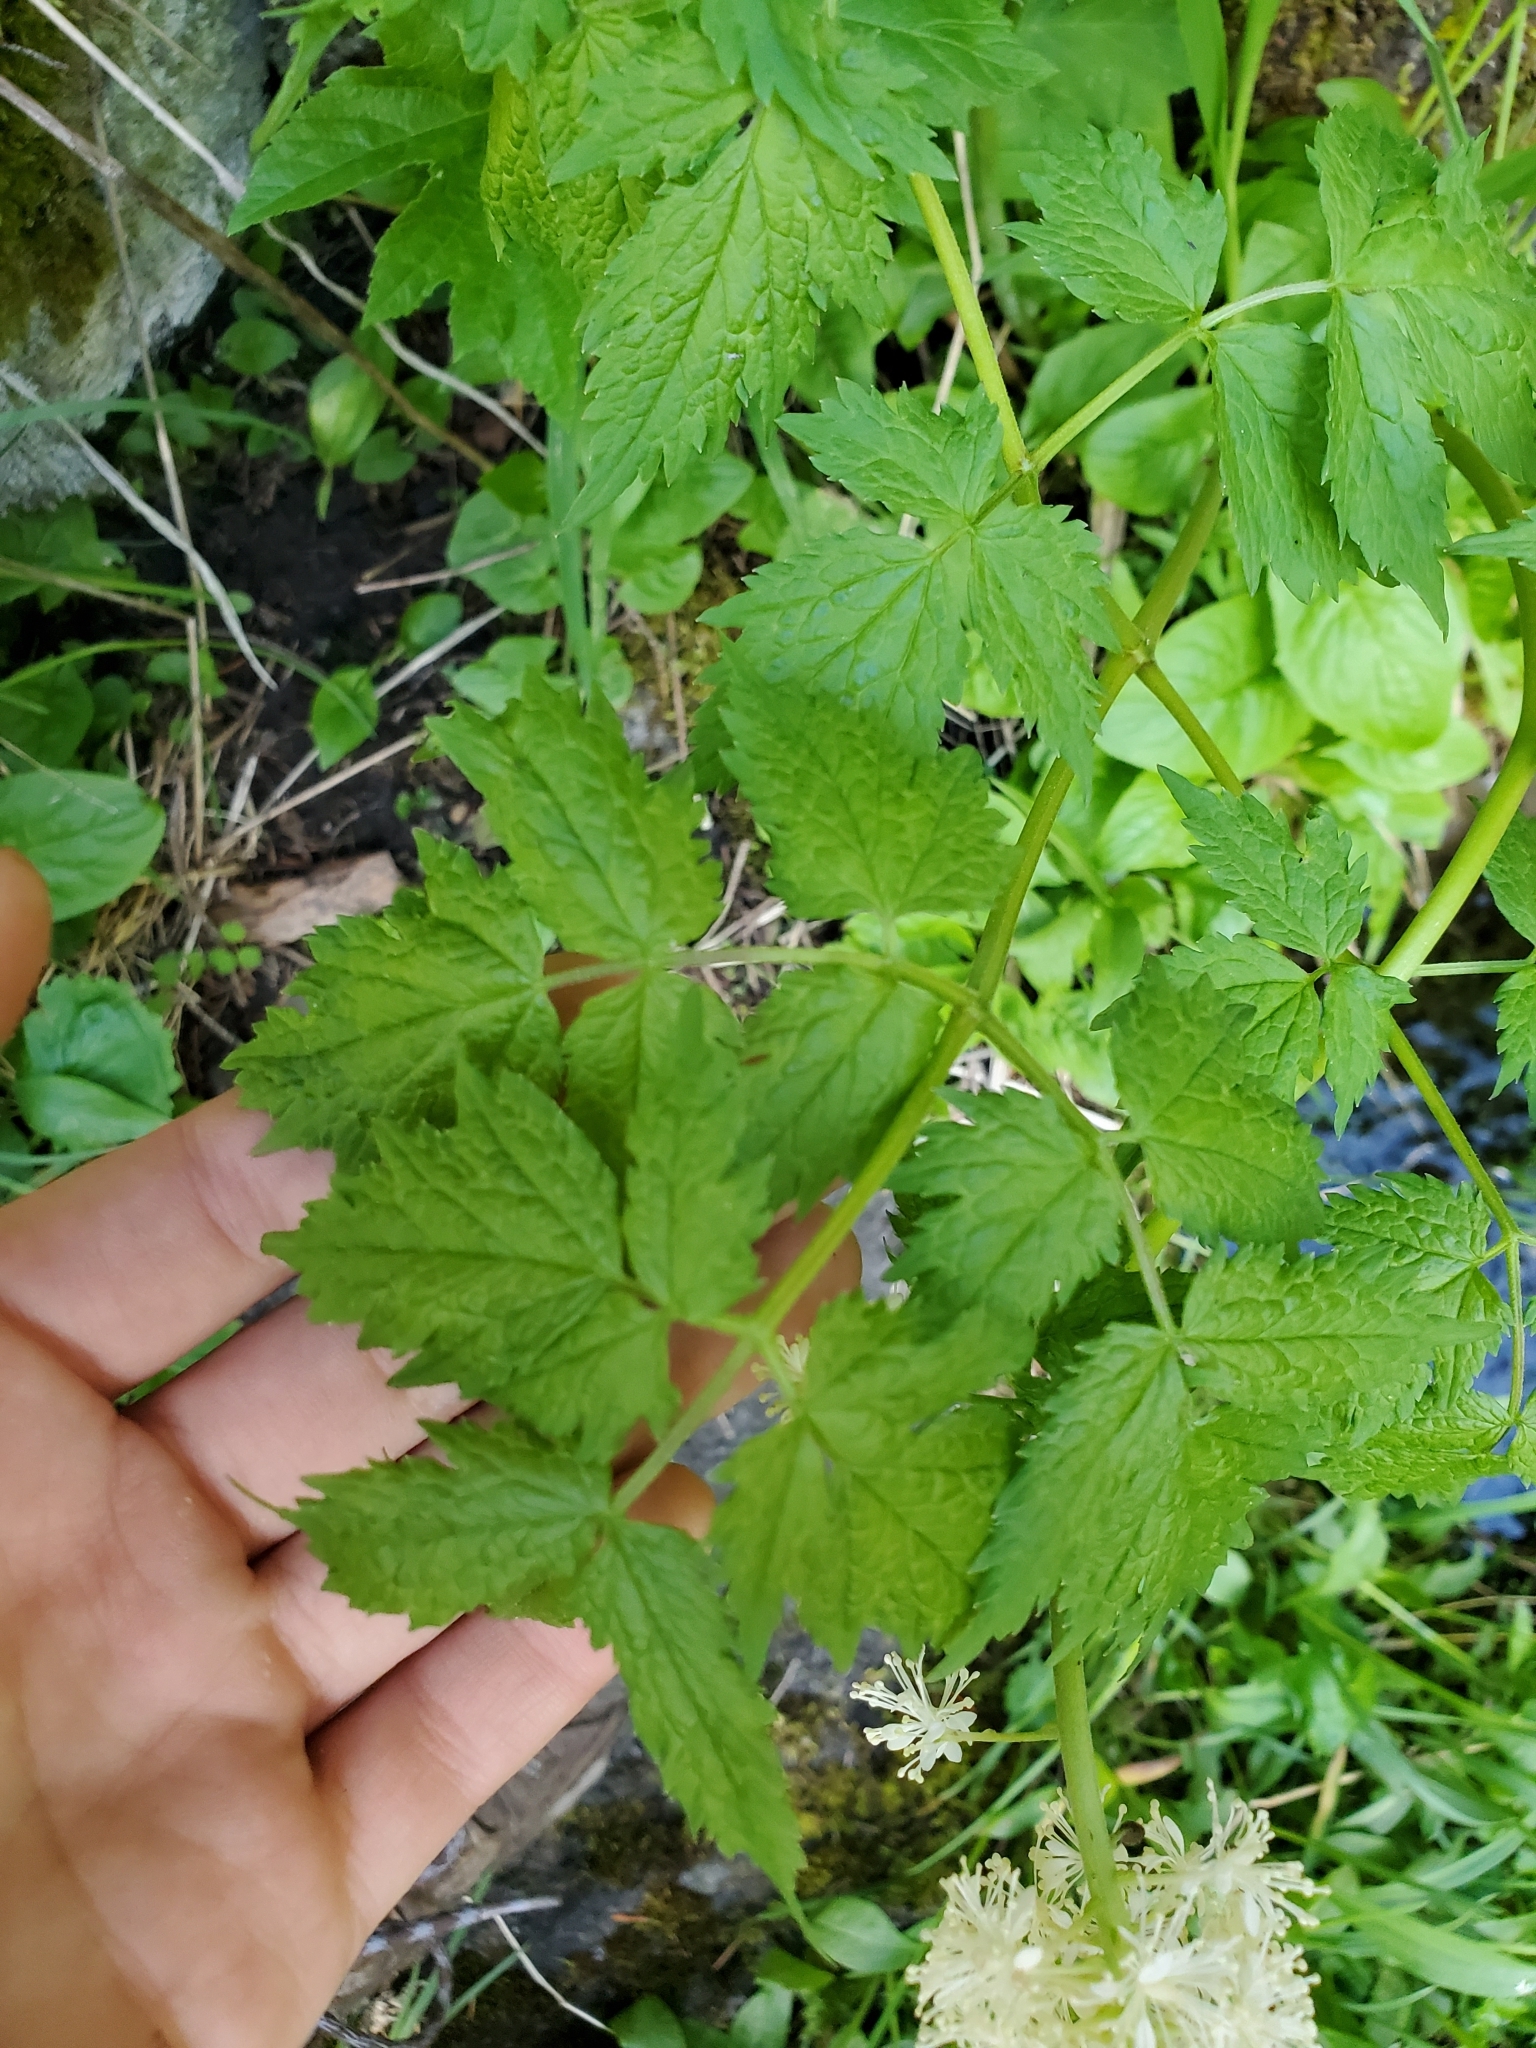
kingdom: Plantae
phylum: Tracheophyta
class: Magnoliopsida
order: Ranunculales
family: Ranunculaceae
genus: Actaea
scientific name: Actaea rubra
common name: Red baneberry
